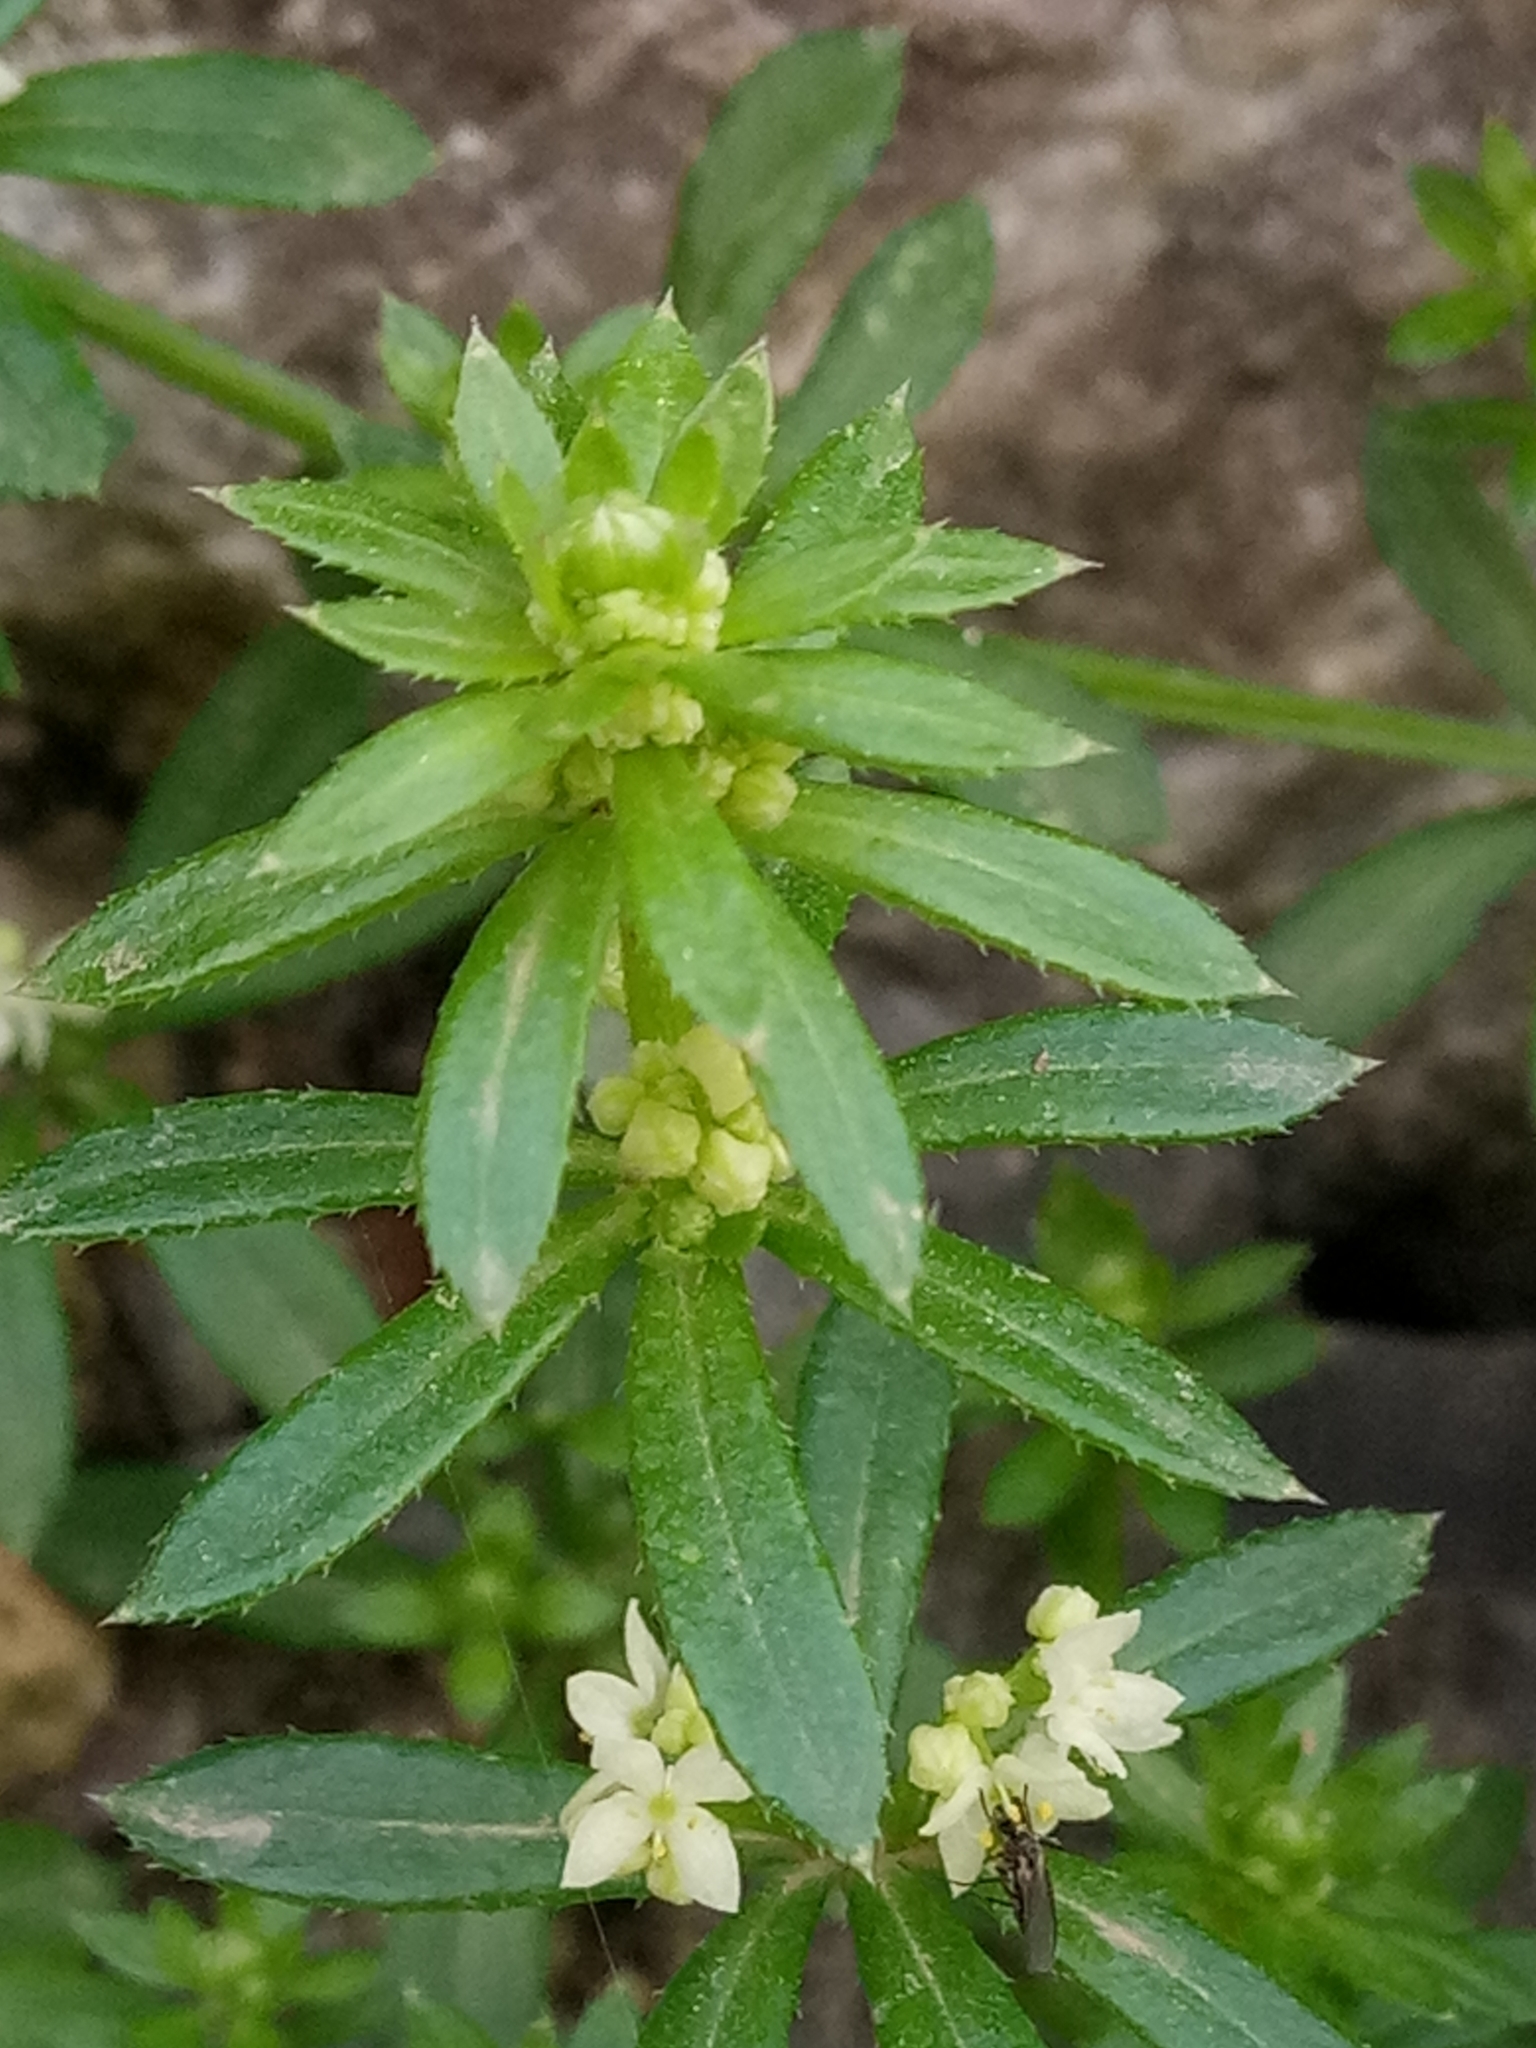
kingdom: Plantae
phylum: Tracheophyta
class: Magnoliopsida
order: Gentianales
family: Rubiaceae
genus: Galium
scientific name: Galium verrucosum
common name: Warty bedstraw
